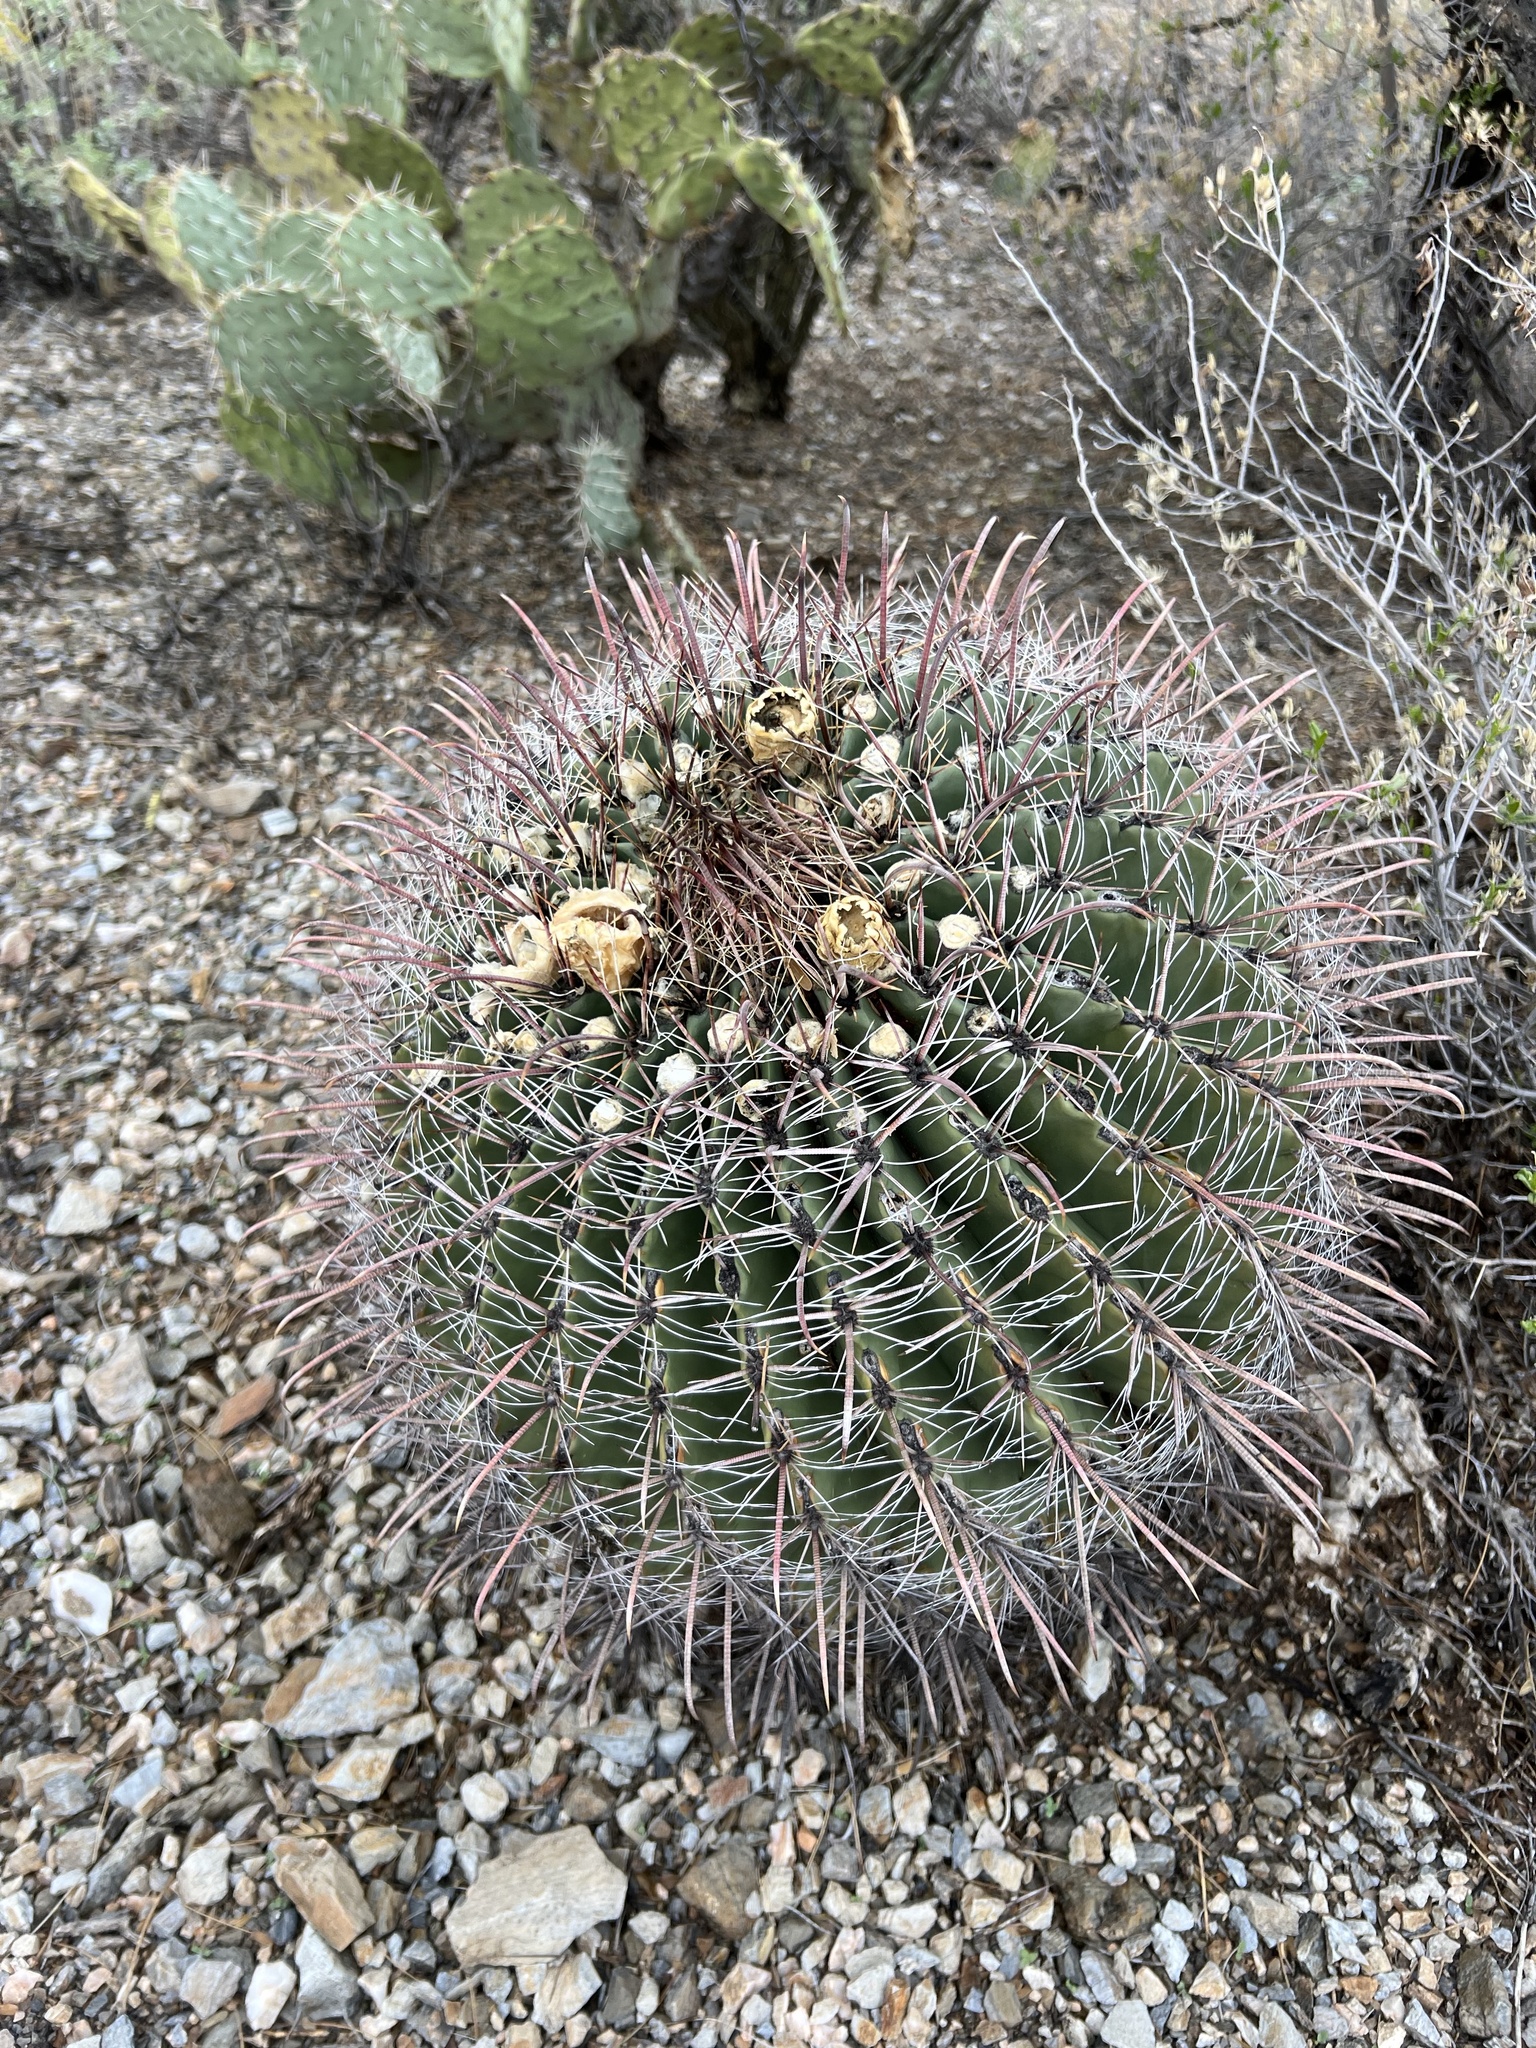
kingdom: Plantae
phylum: Tracheophyta
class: Magnoliopsida
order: Caryophyllales
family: Cactaceae
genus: Ferocactus
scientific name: Ferocactus wislizeni
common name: Candy barrel cactus
